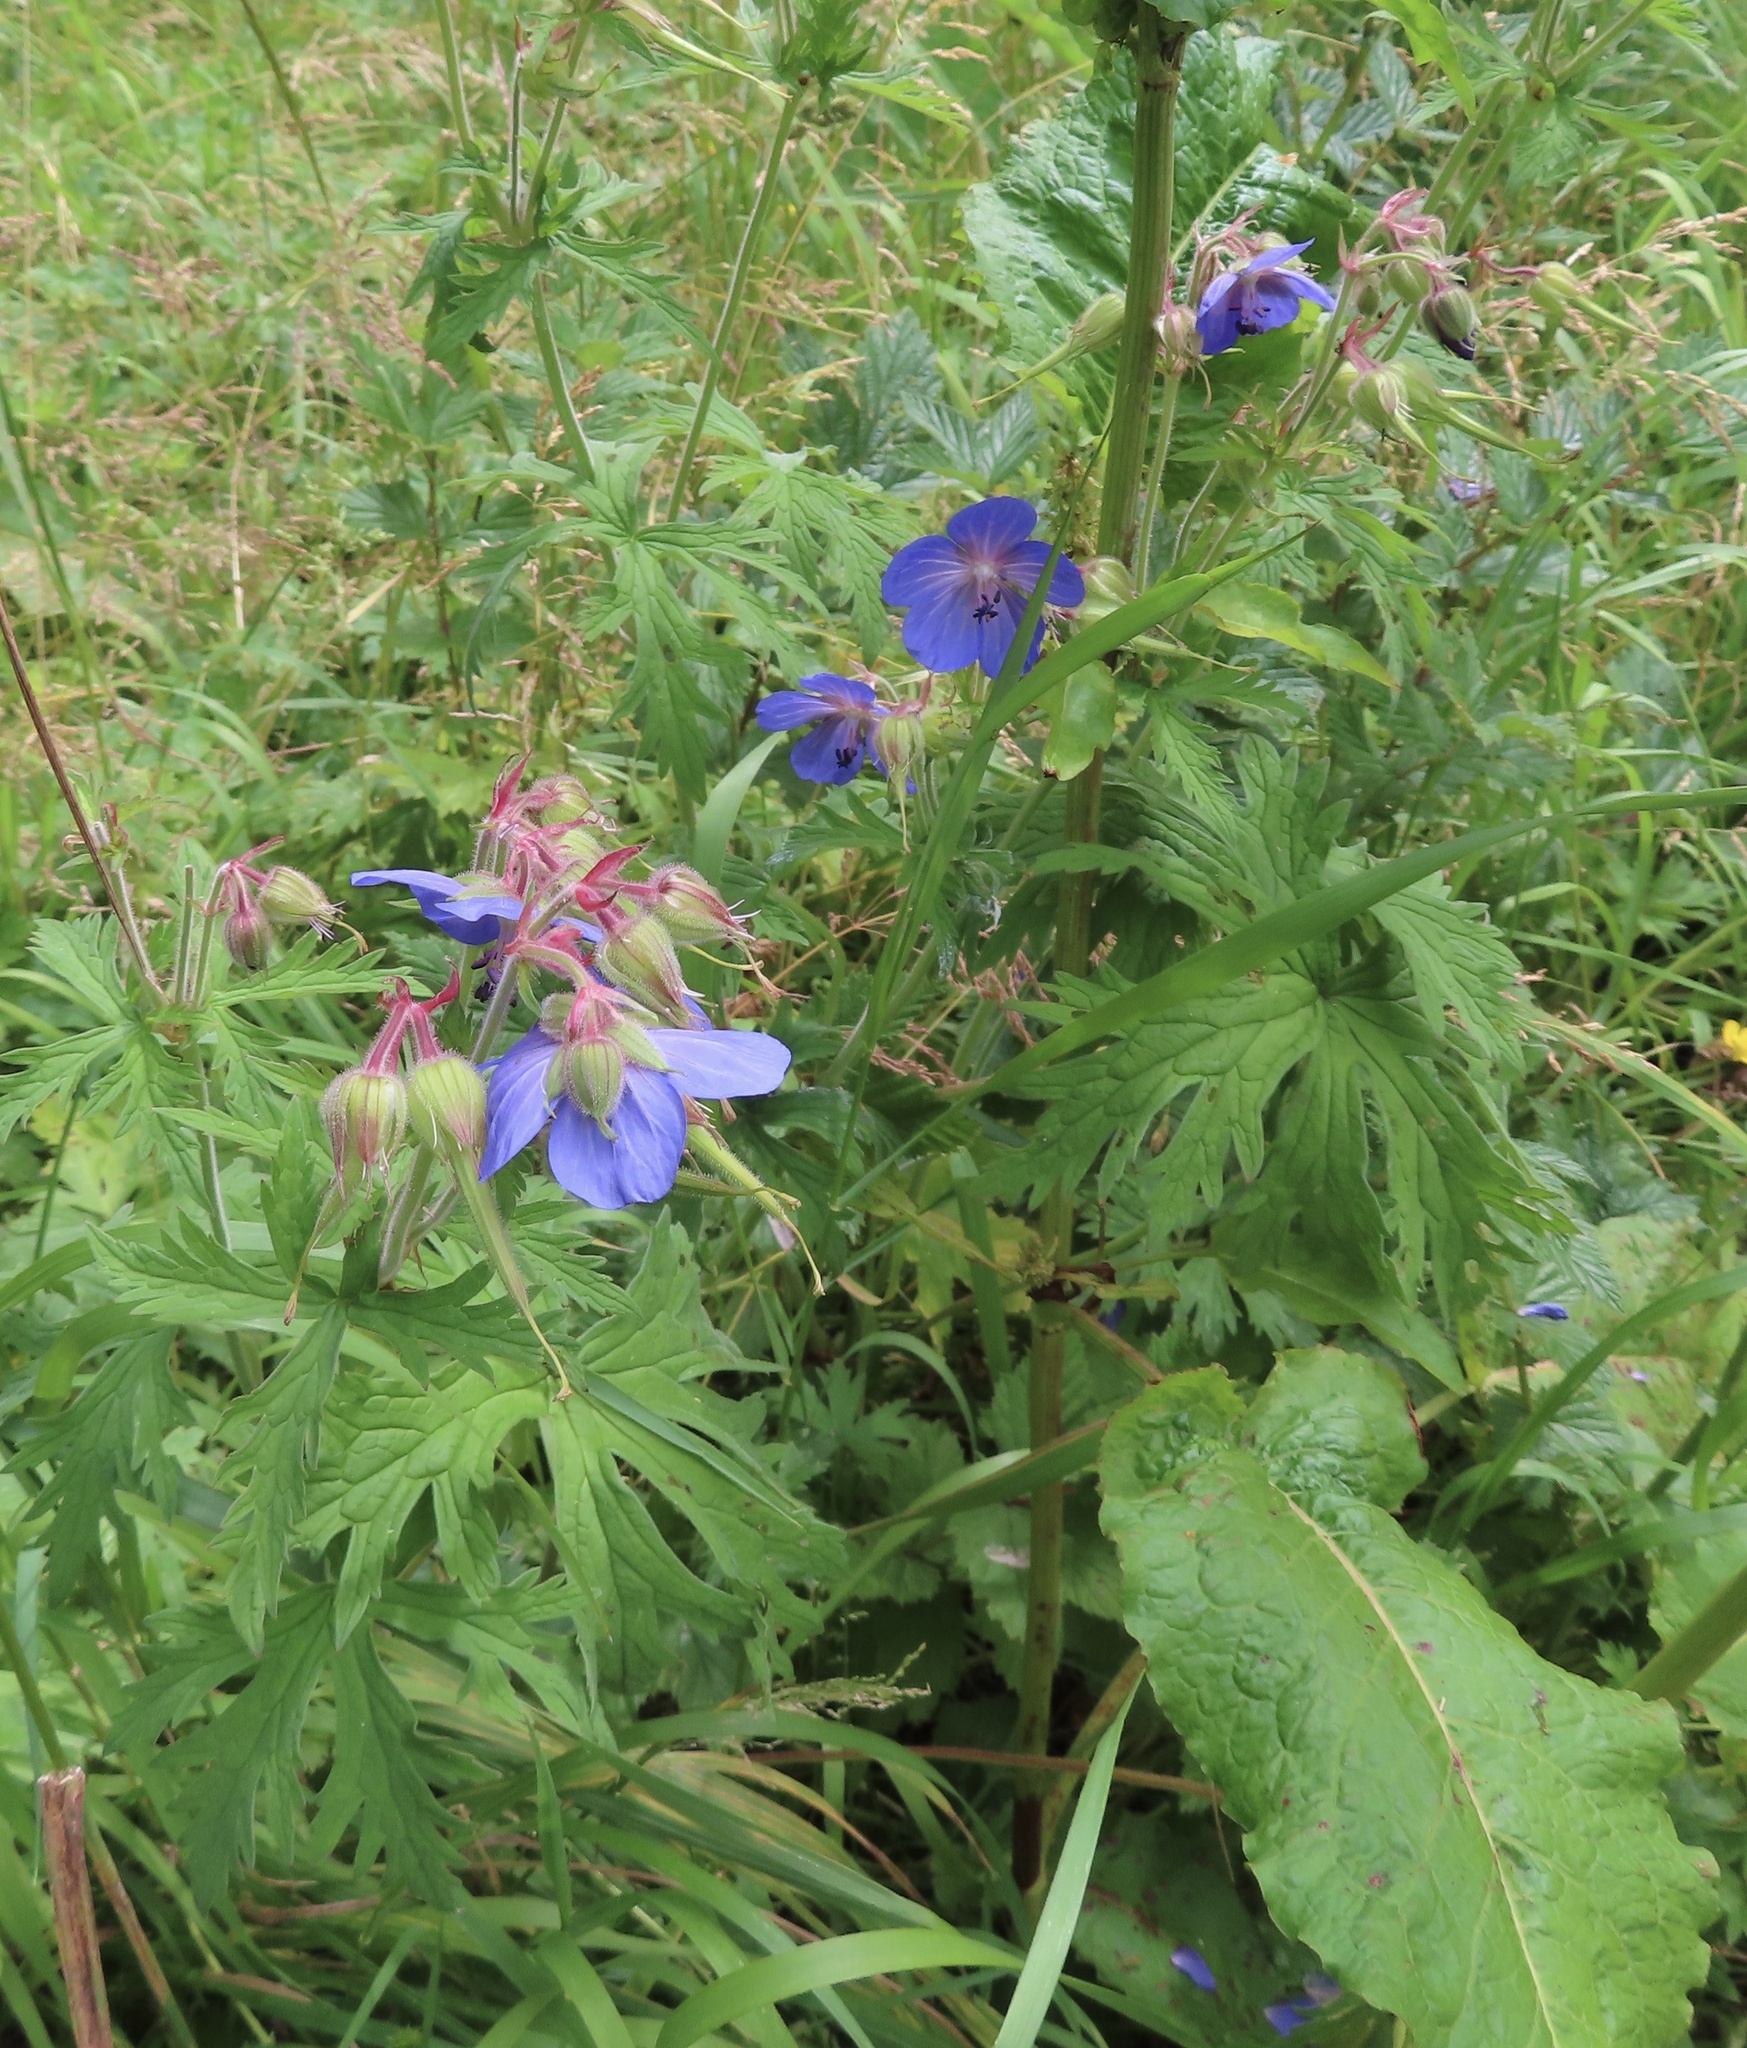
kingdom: Plantae
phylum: Tracheophyta
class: Magnoliopsida
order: Geraniales
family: Geraniaceae
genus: Geranium
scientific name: Geranium pratense
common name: Meadow crane's-bill
